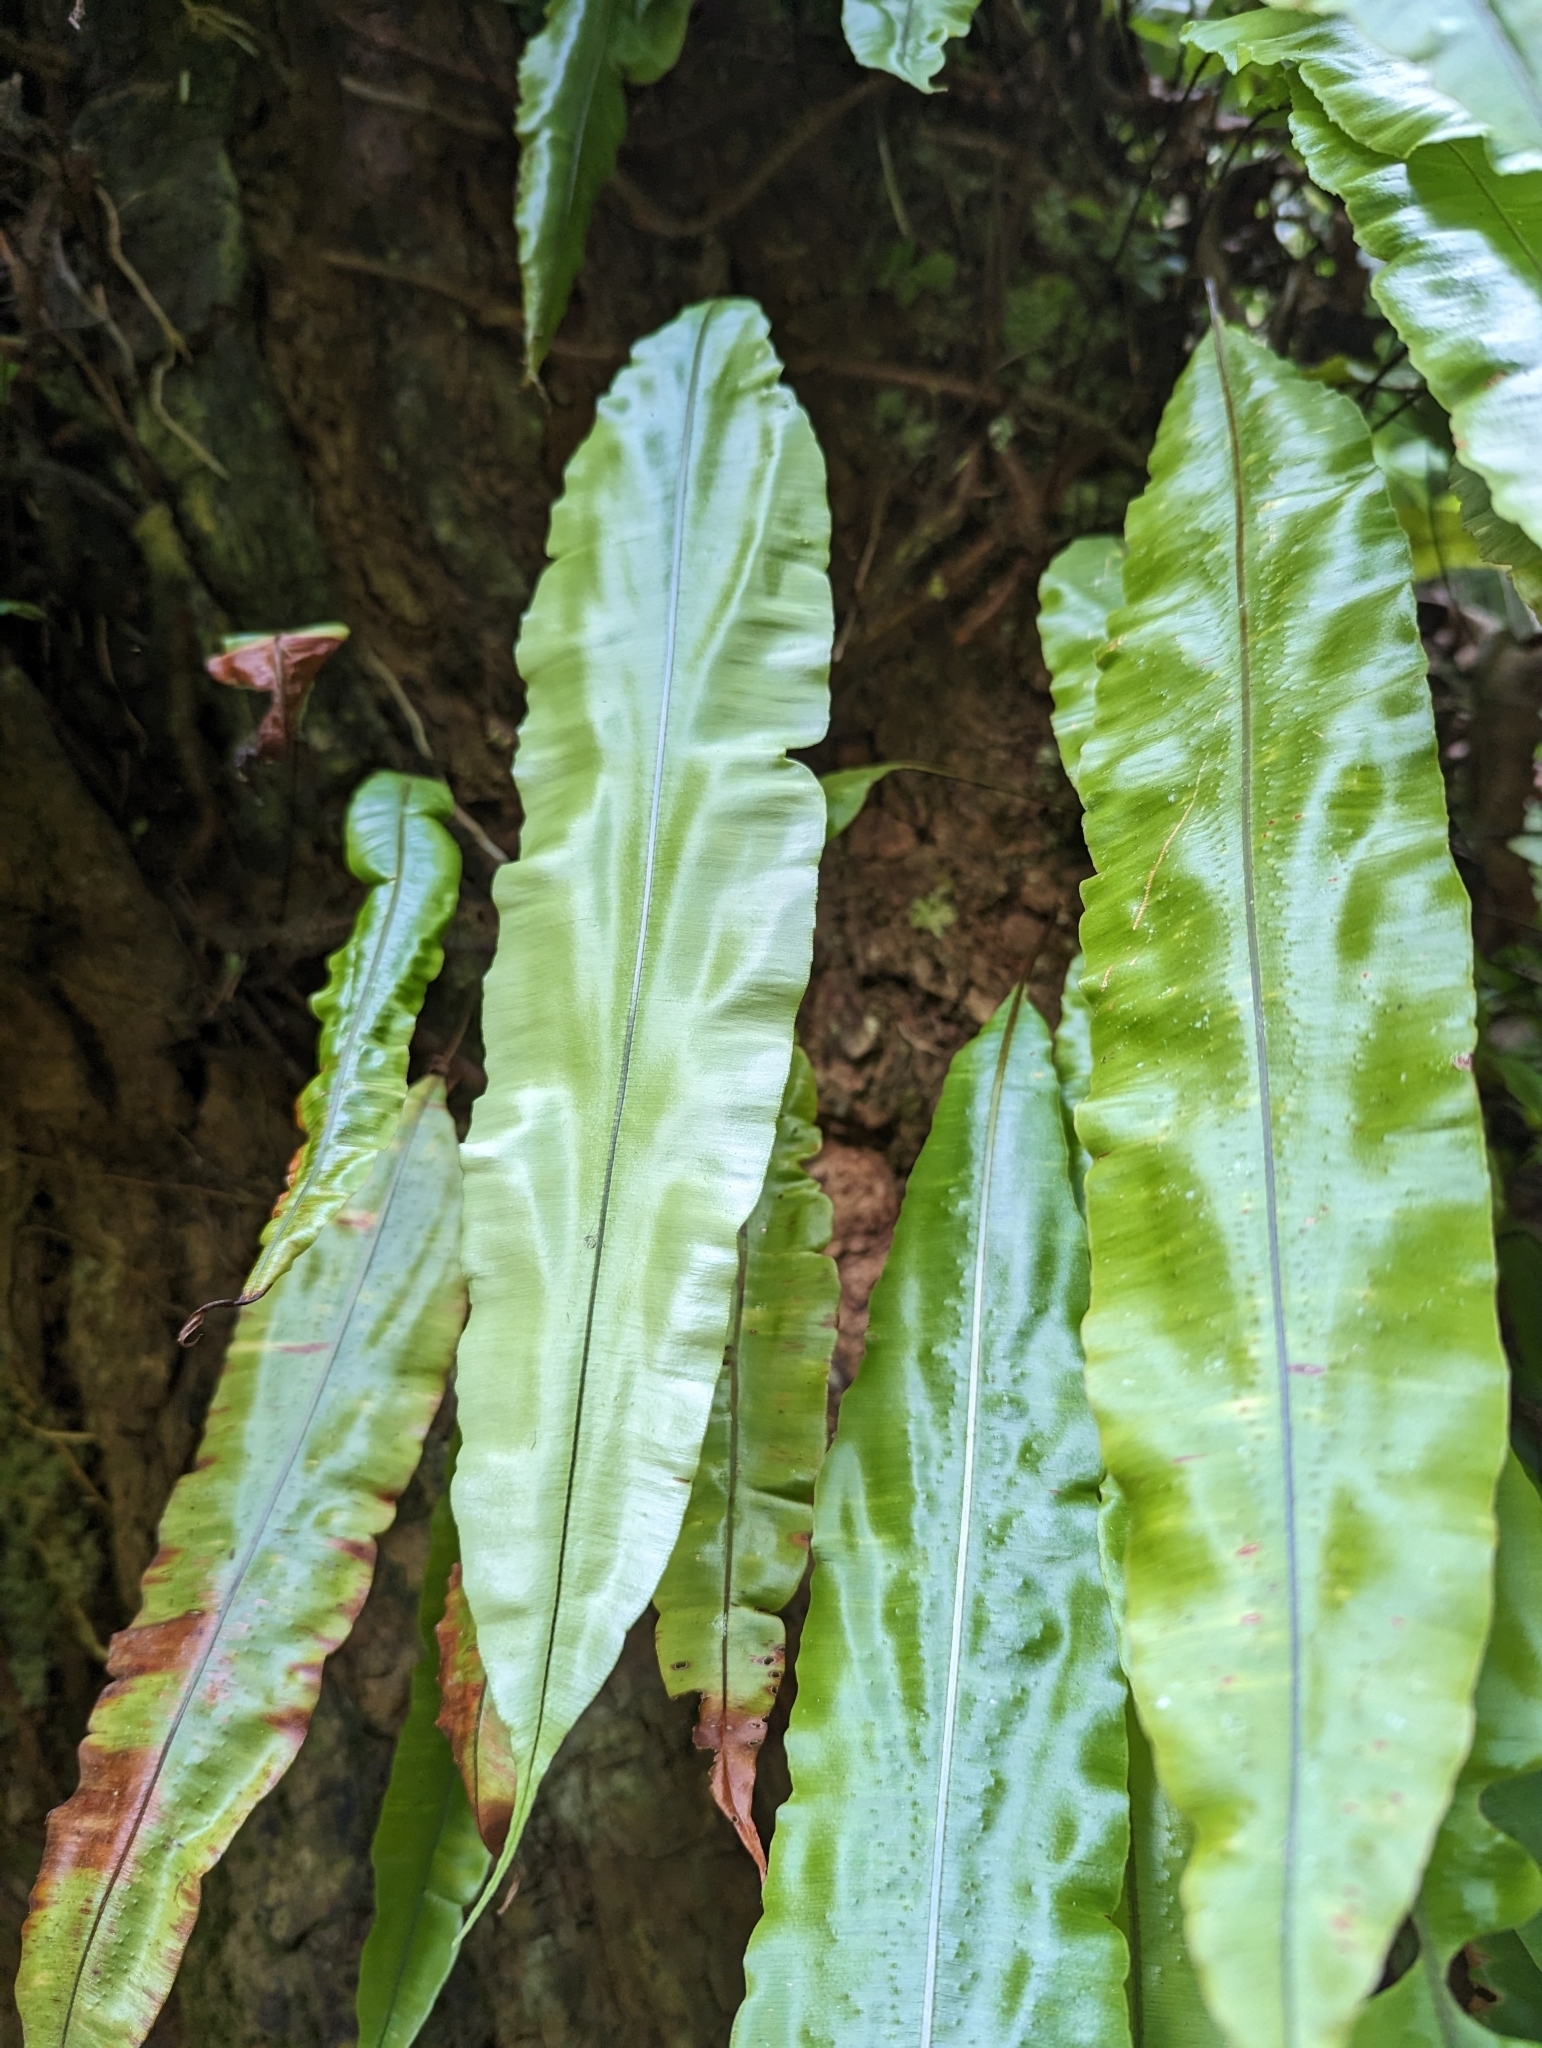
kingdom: Plantae
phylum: Tracheophyta
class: Polypodiopsida
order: Polypodiales
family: Oleandraceae
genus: Oleandra
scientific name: Oleandra articulata
